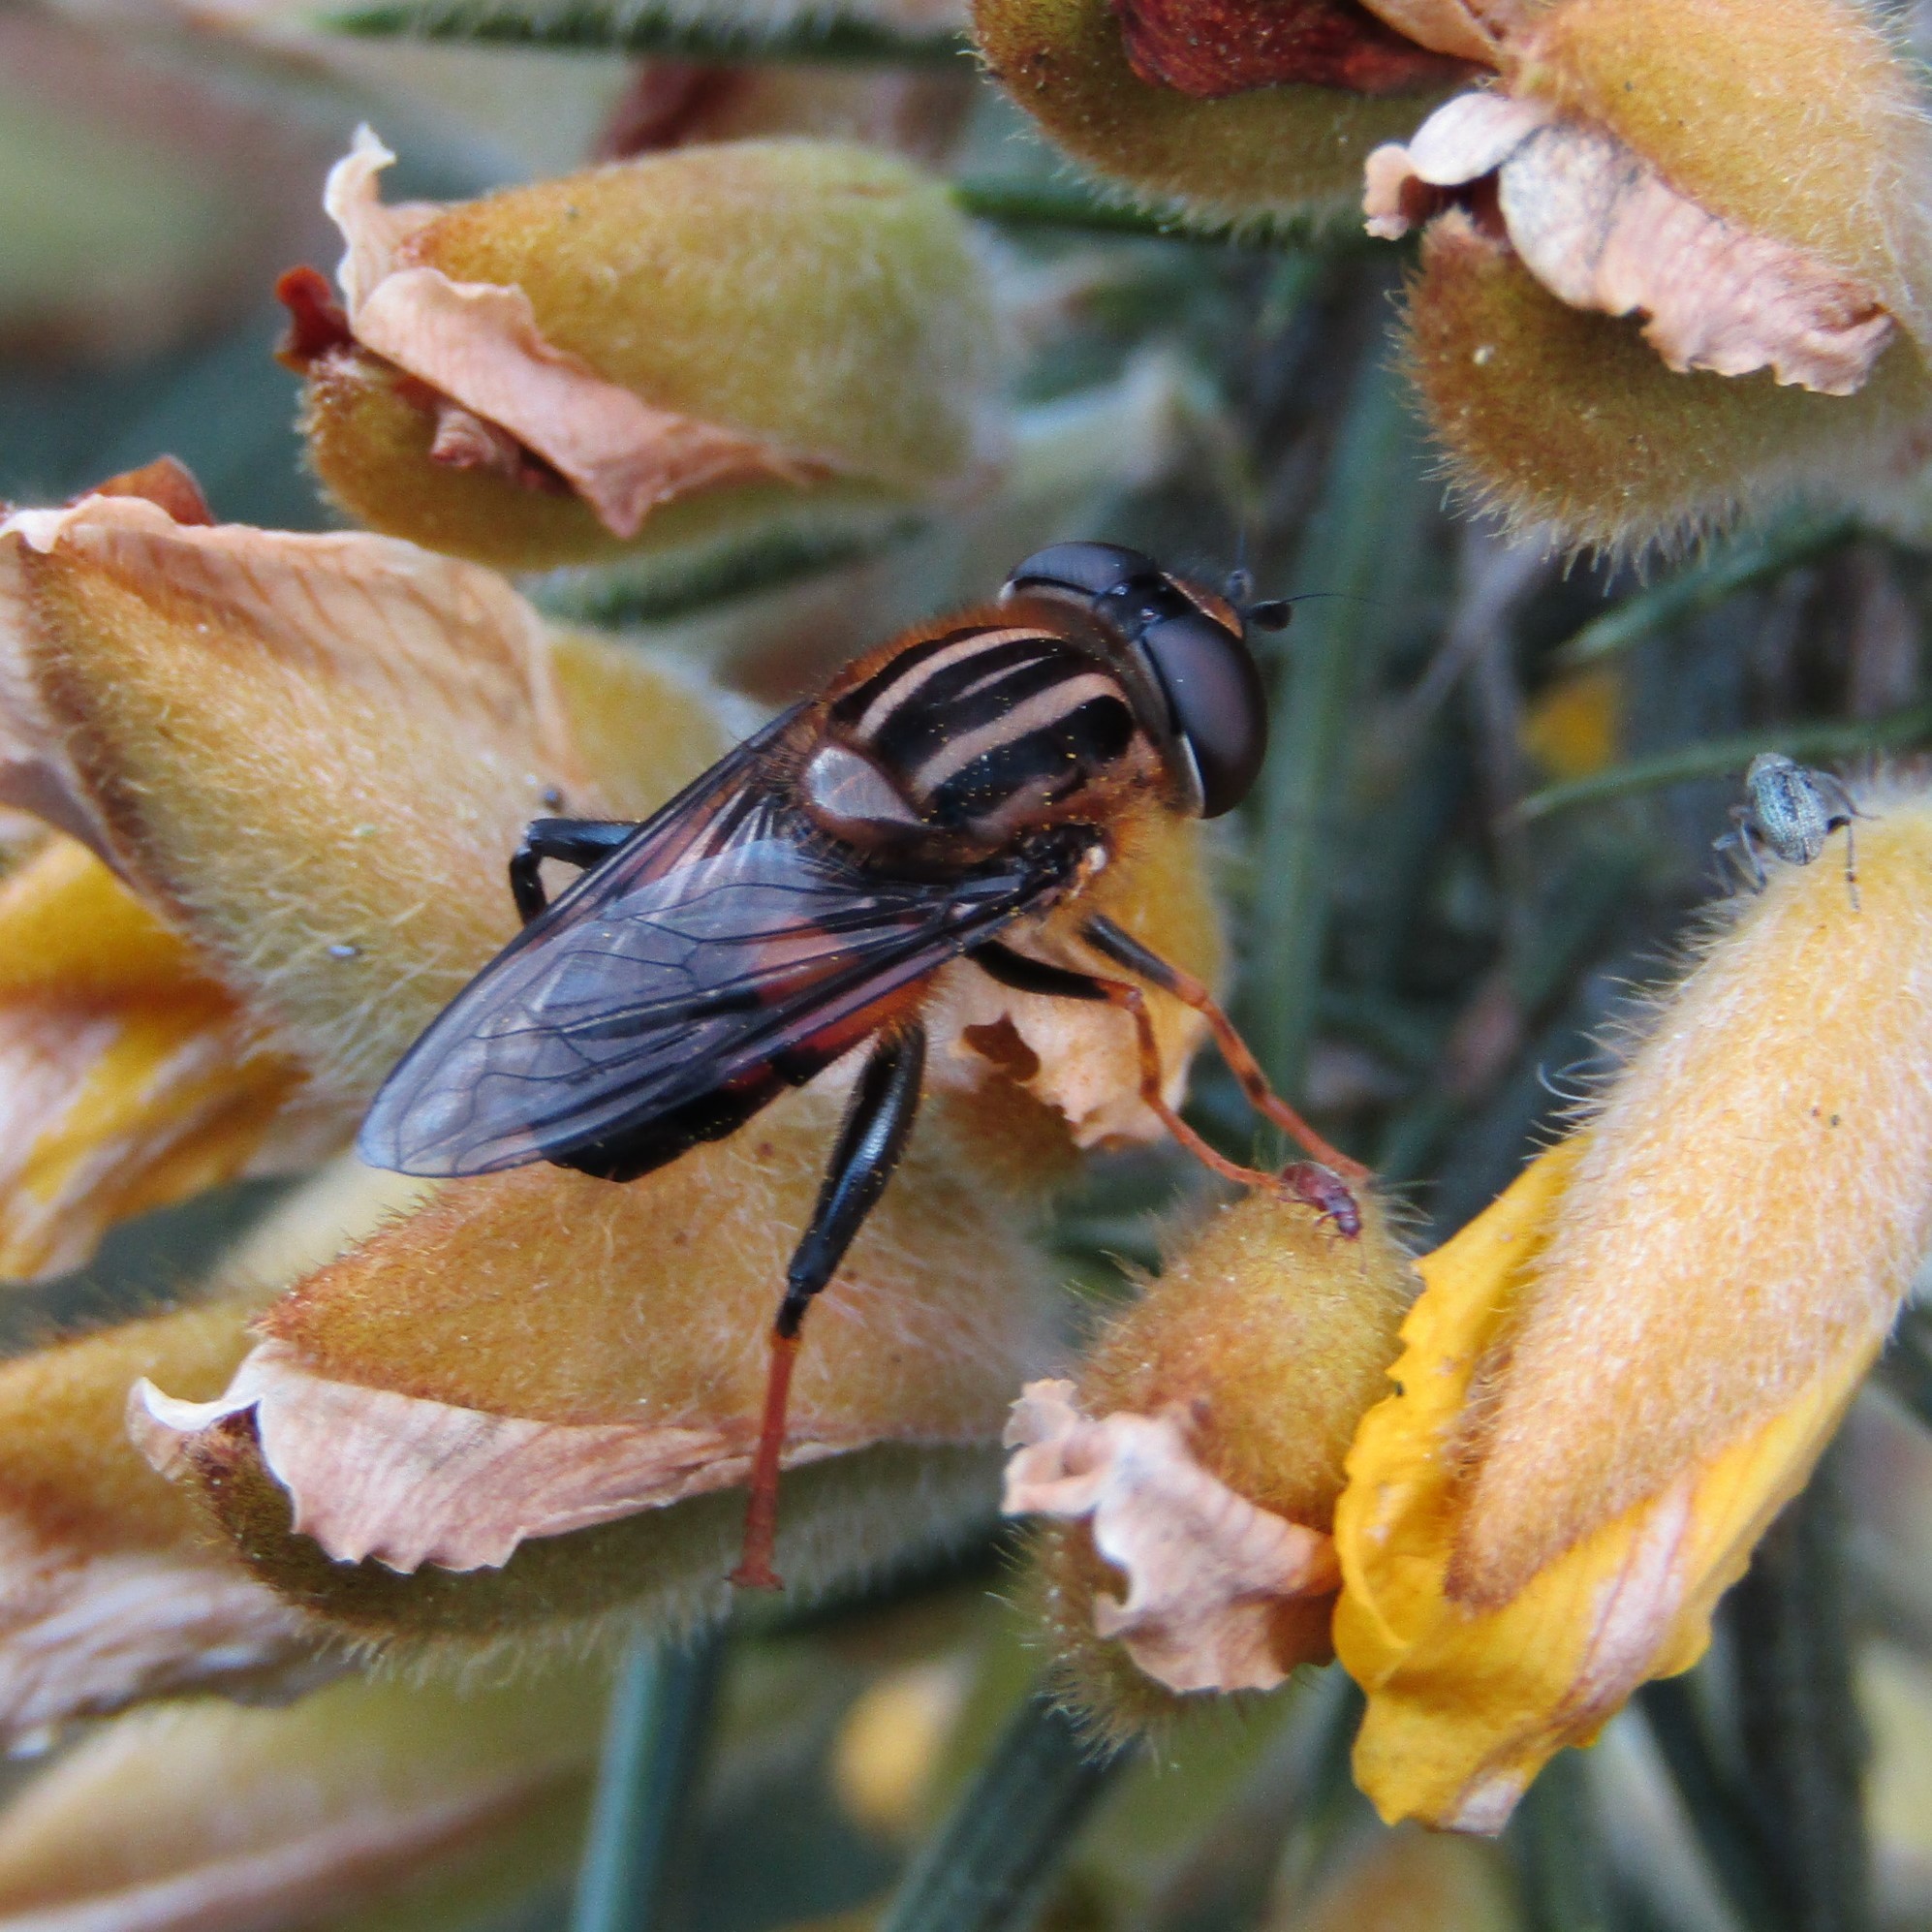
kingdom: Animalia
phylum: Arthropoda
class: Insecta
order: Diptera
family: Syrphidae
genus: Helophilus
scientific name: Helophilus antipodus
